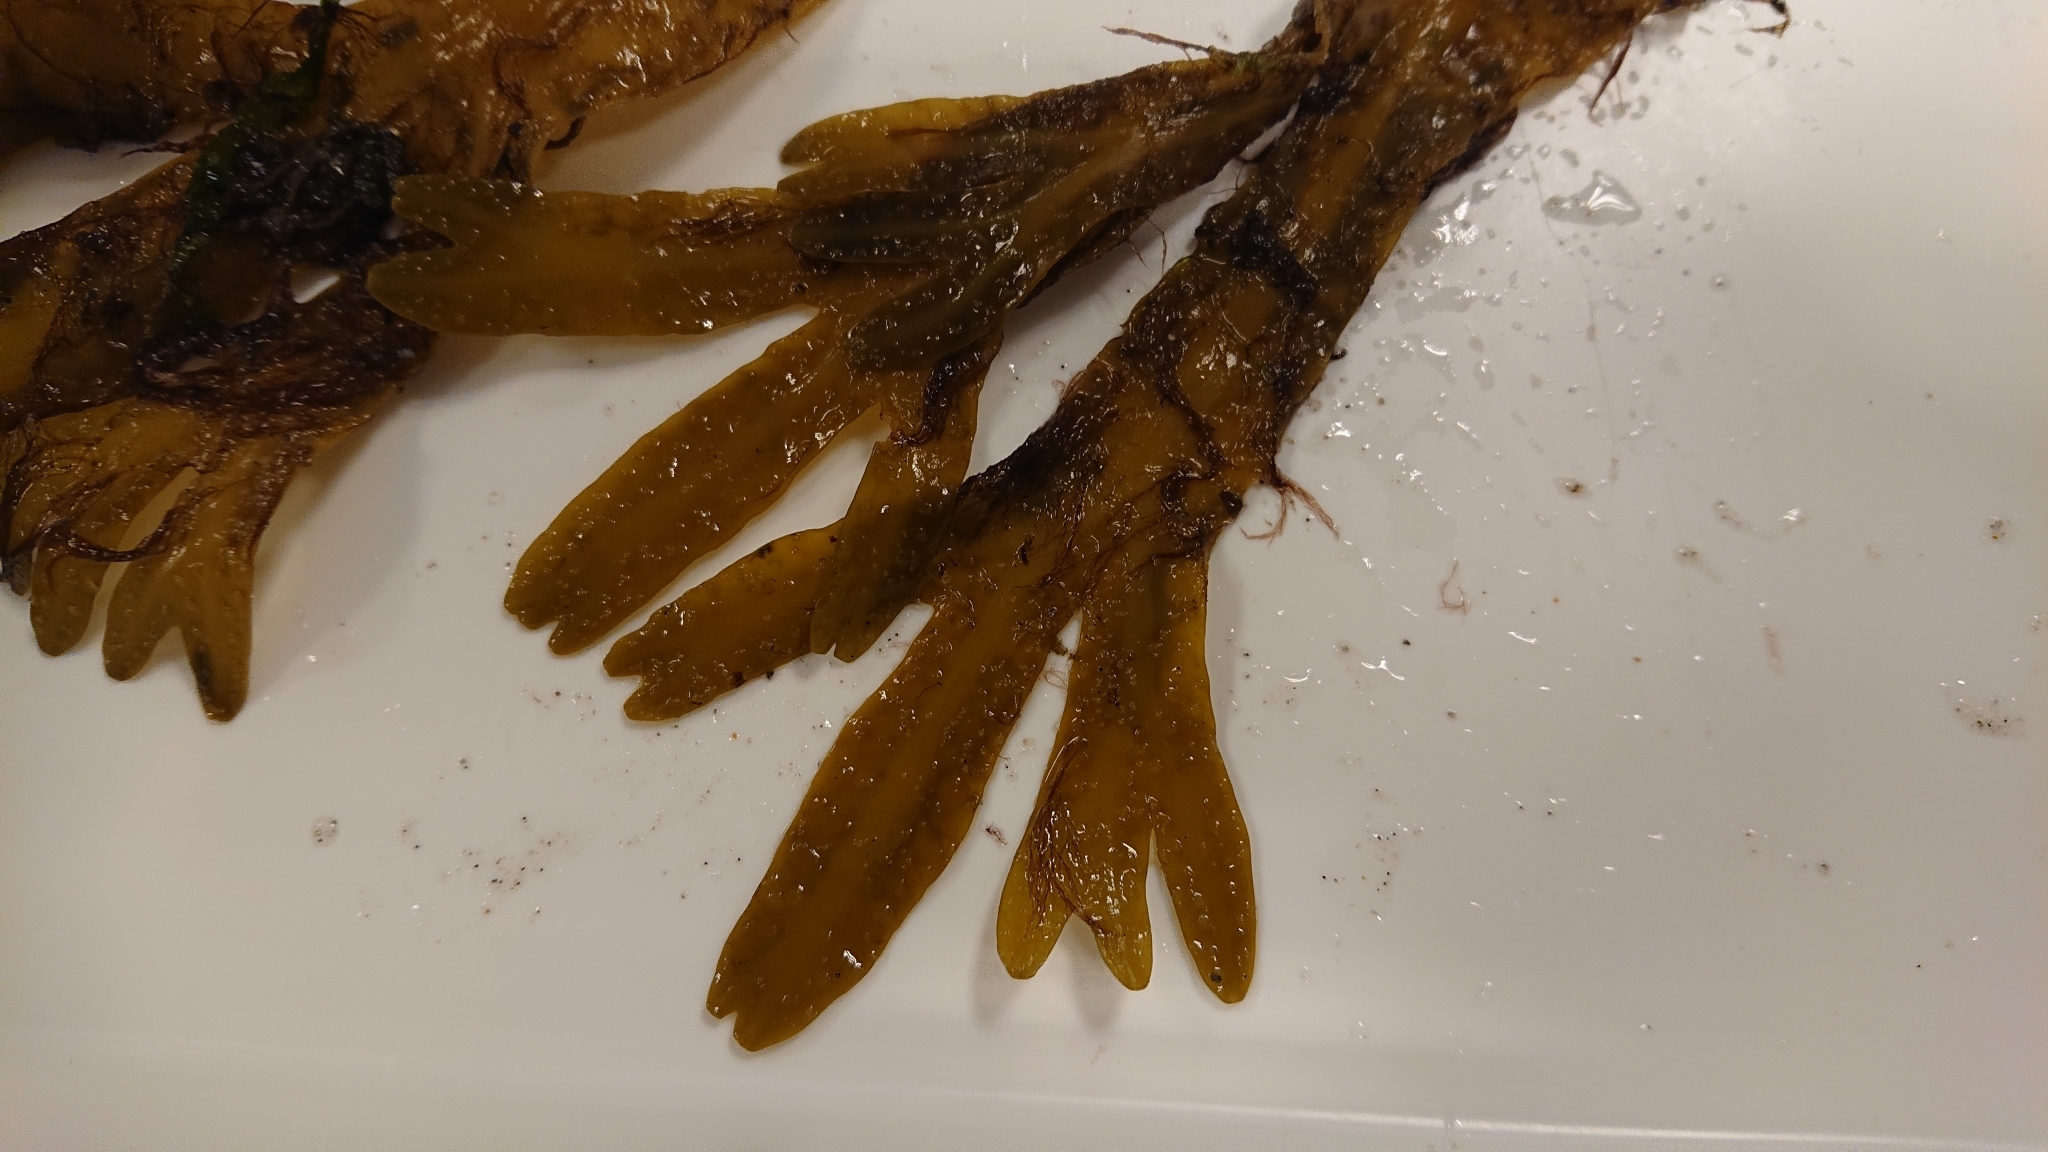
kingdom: Chromista
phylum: Ochrophyta
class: Phaeophyceae
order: Fucales
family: Fucaceae
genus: Fucus
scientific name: Fucus vesiculosus
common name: Bladder wrack
